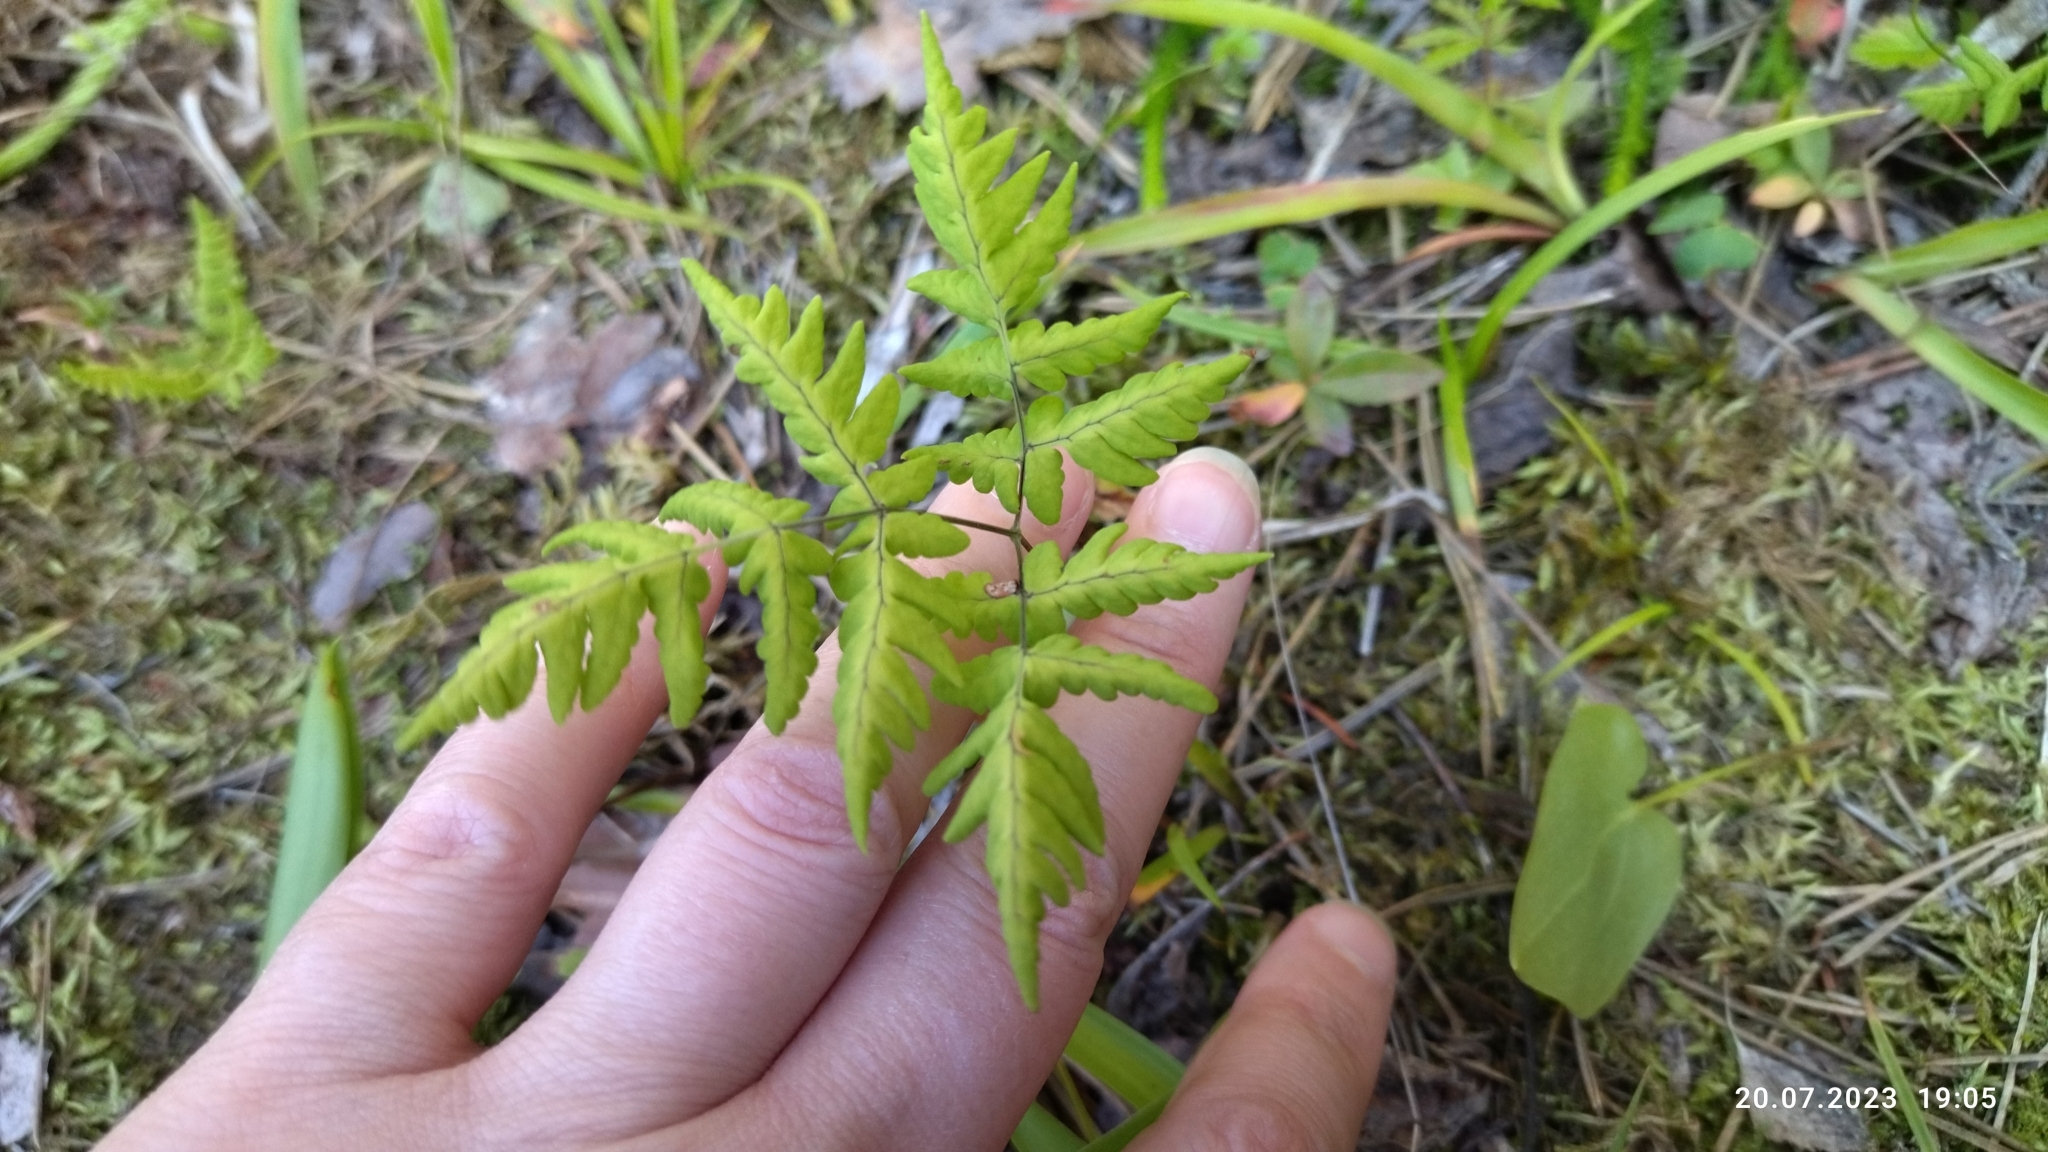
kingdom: Plantae
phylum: Tracheophyta
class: Polypodiopsida
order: Polypodiales
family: Cystopteridaceae
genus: Gymnocarpium
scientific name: Gymnocarpium dryopteris
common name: Oak fern
